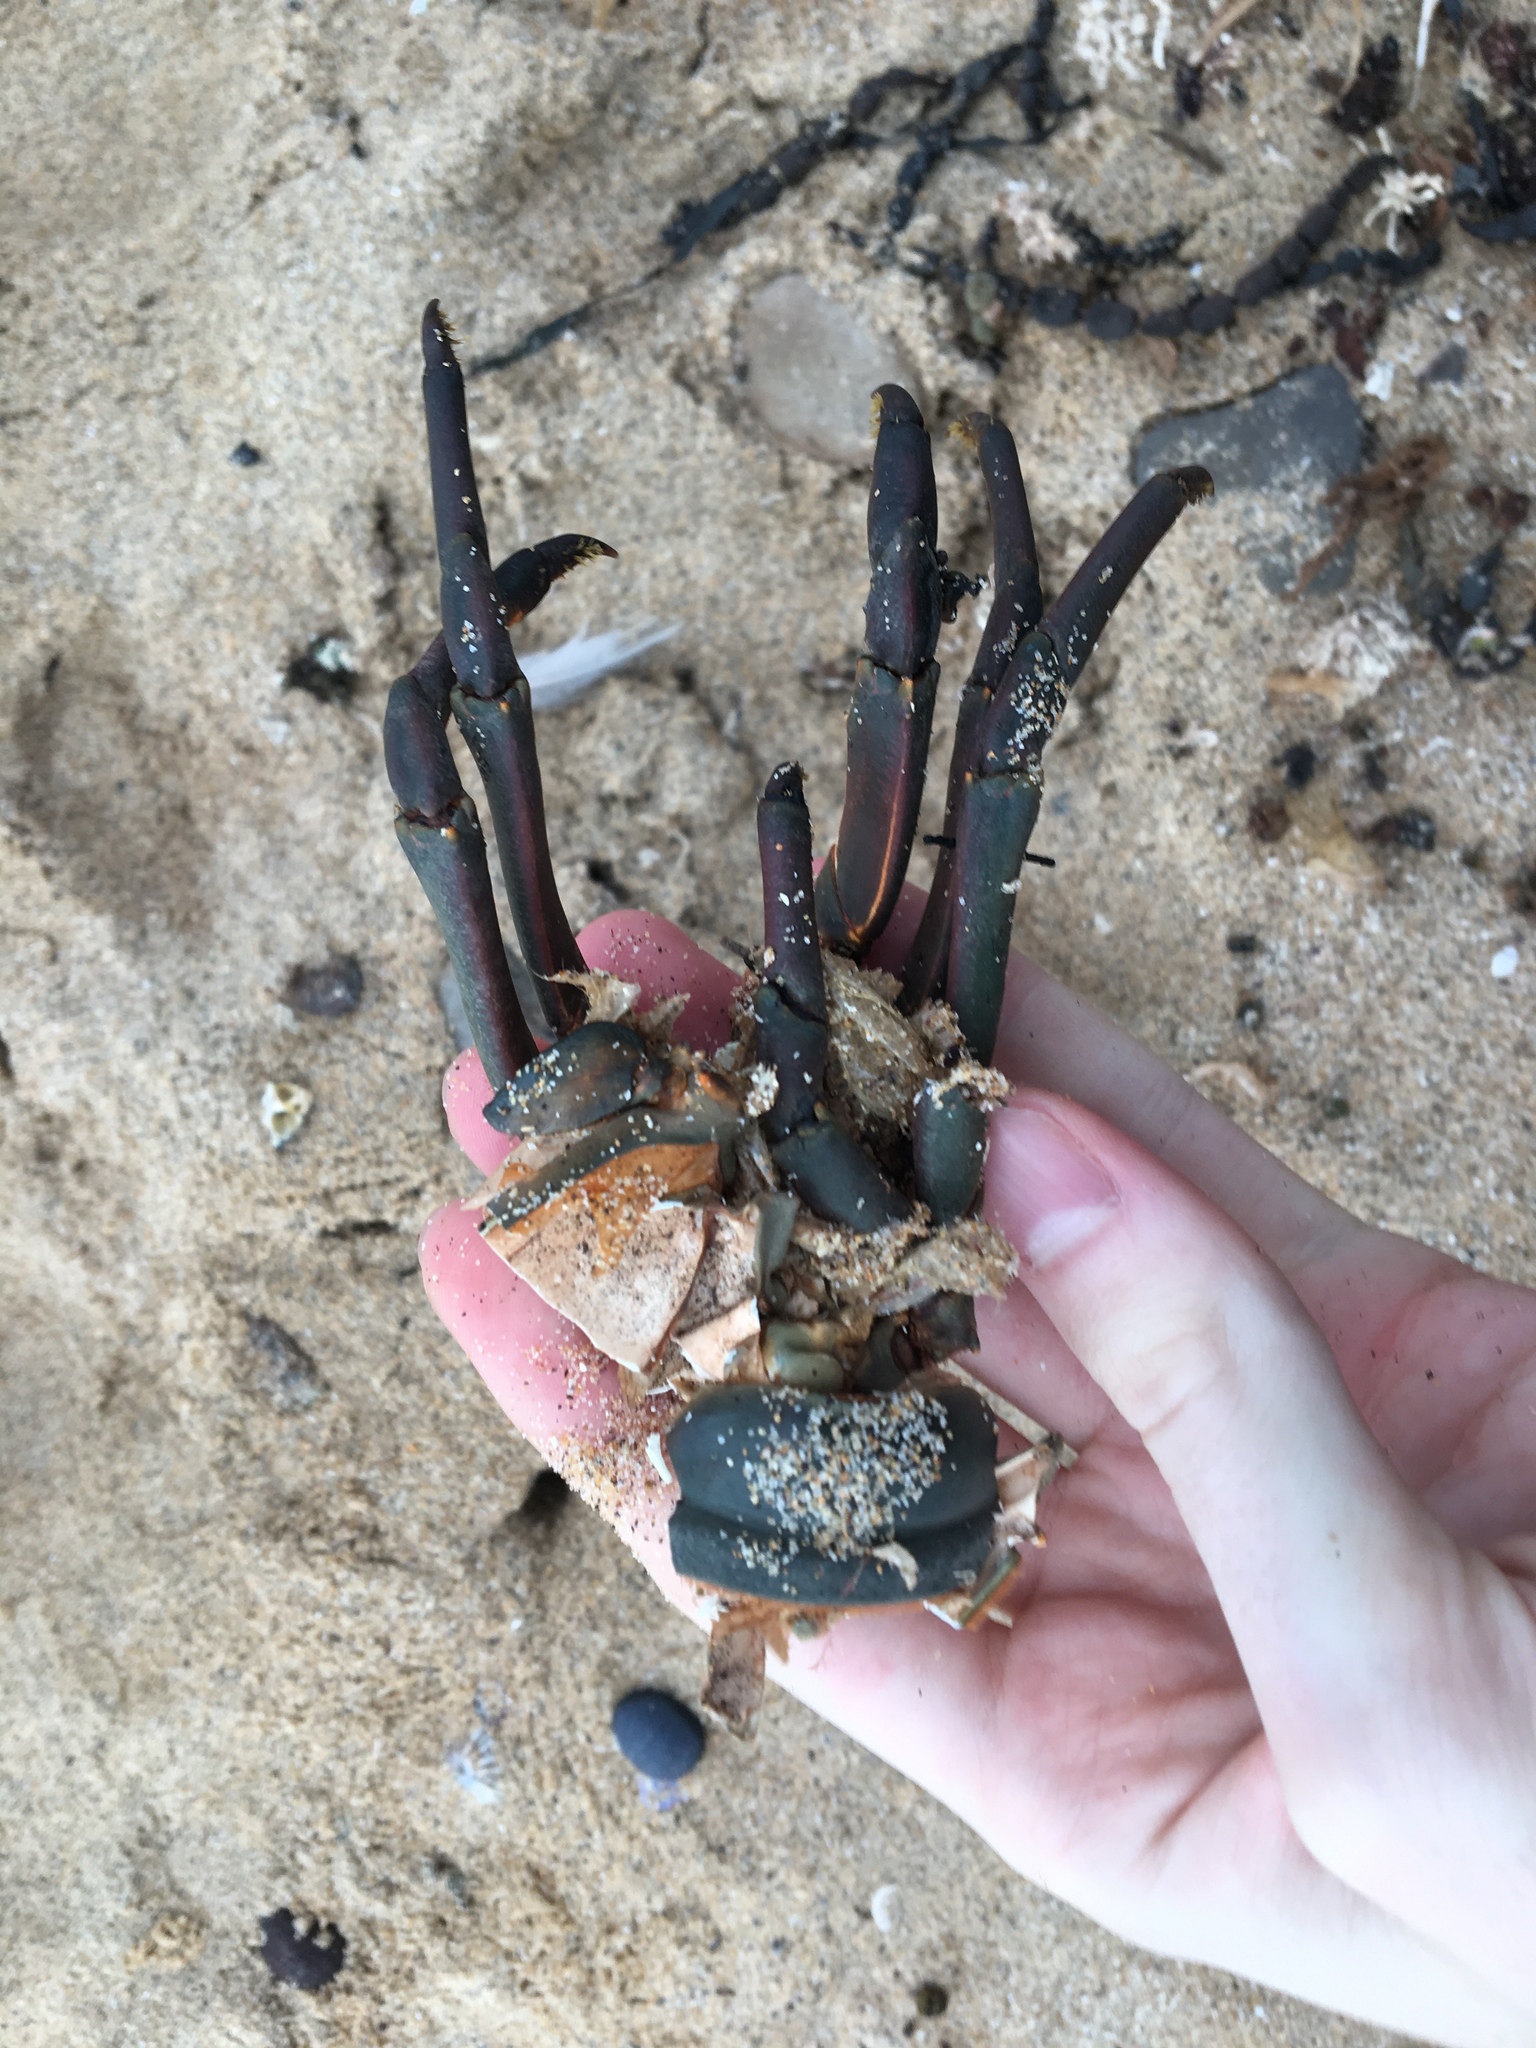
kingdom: Animalia
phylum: Arthropoda
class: Malacostraca
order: Decapoda
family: Palinuridae
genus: Sagmariasus
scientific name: Sagmariasus verreauxi
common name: Green rock lobster
